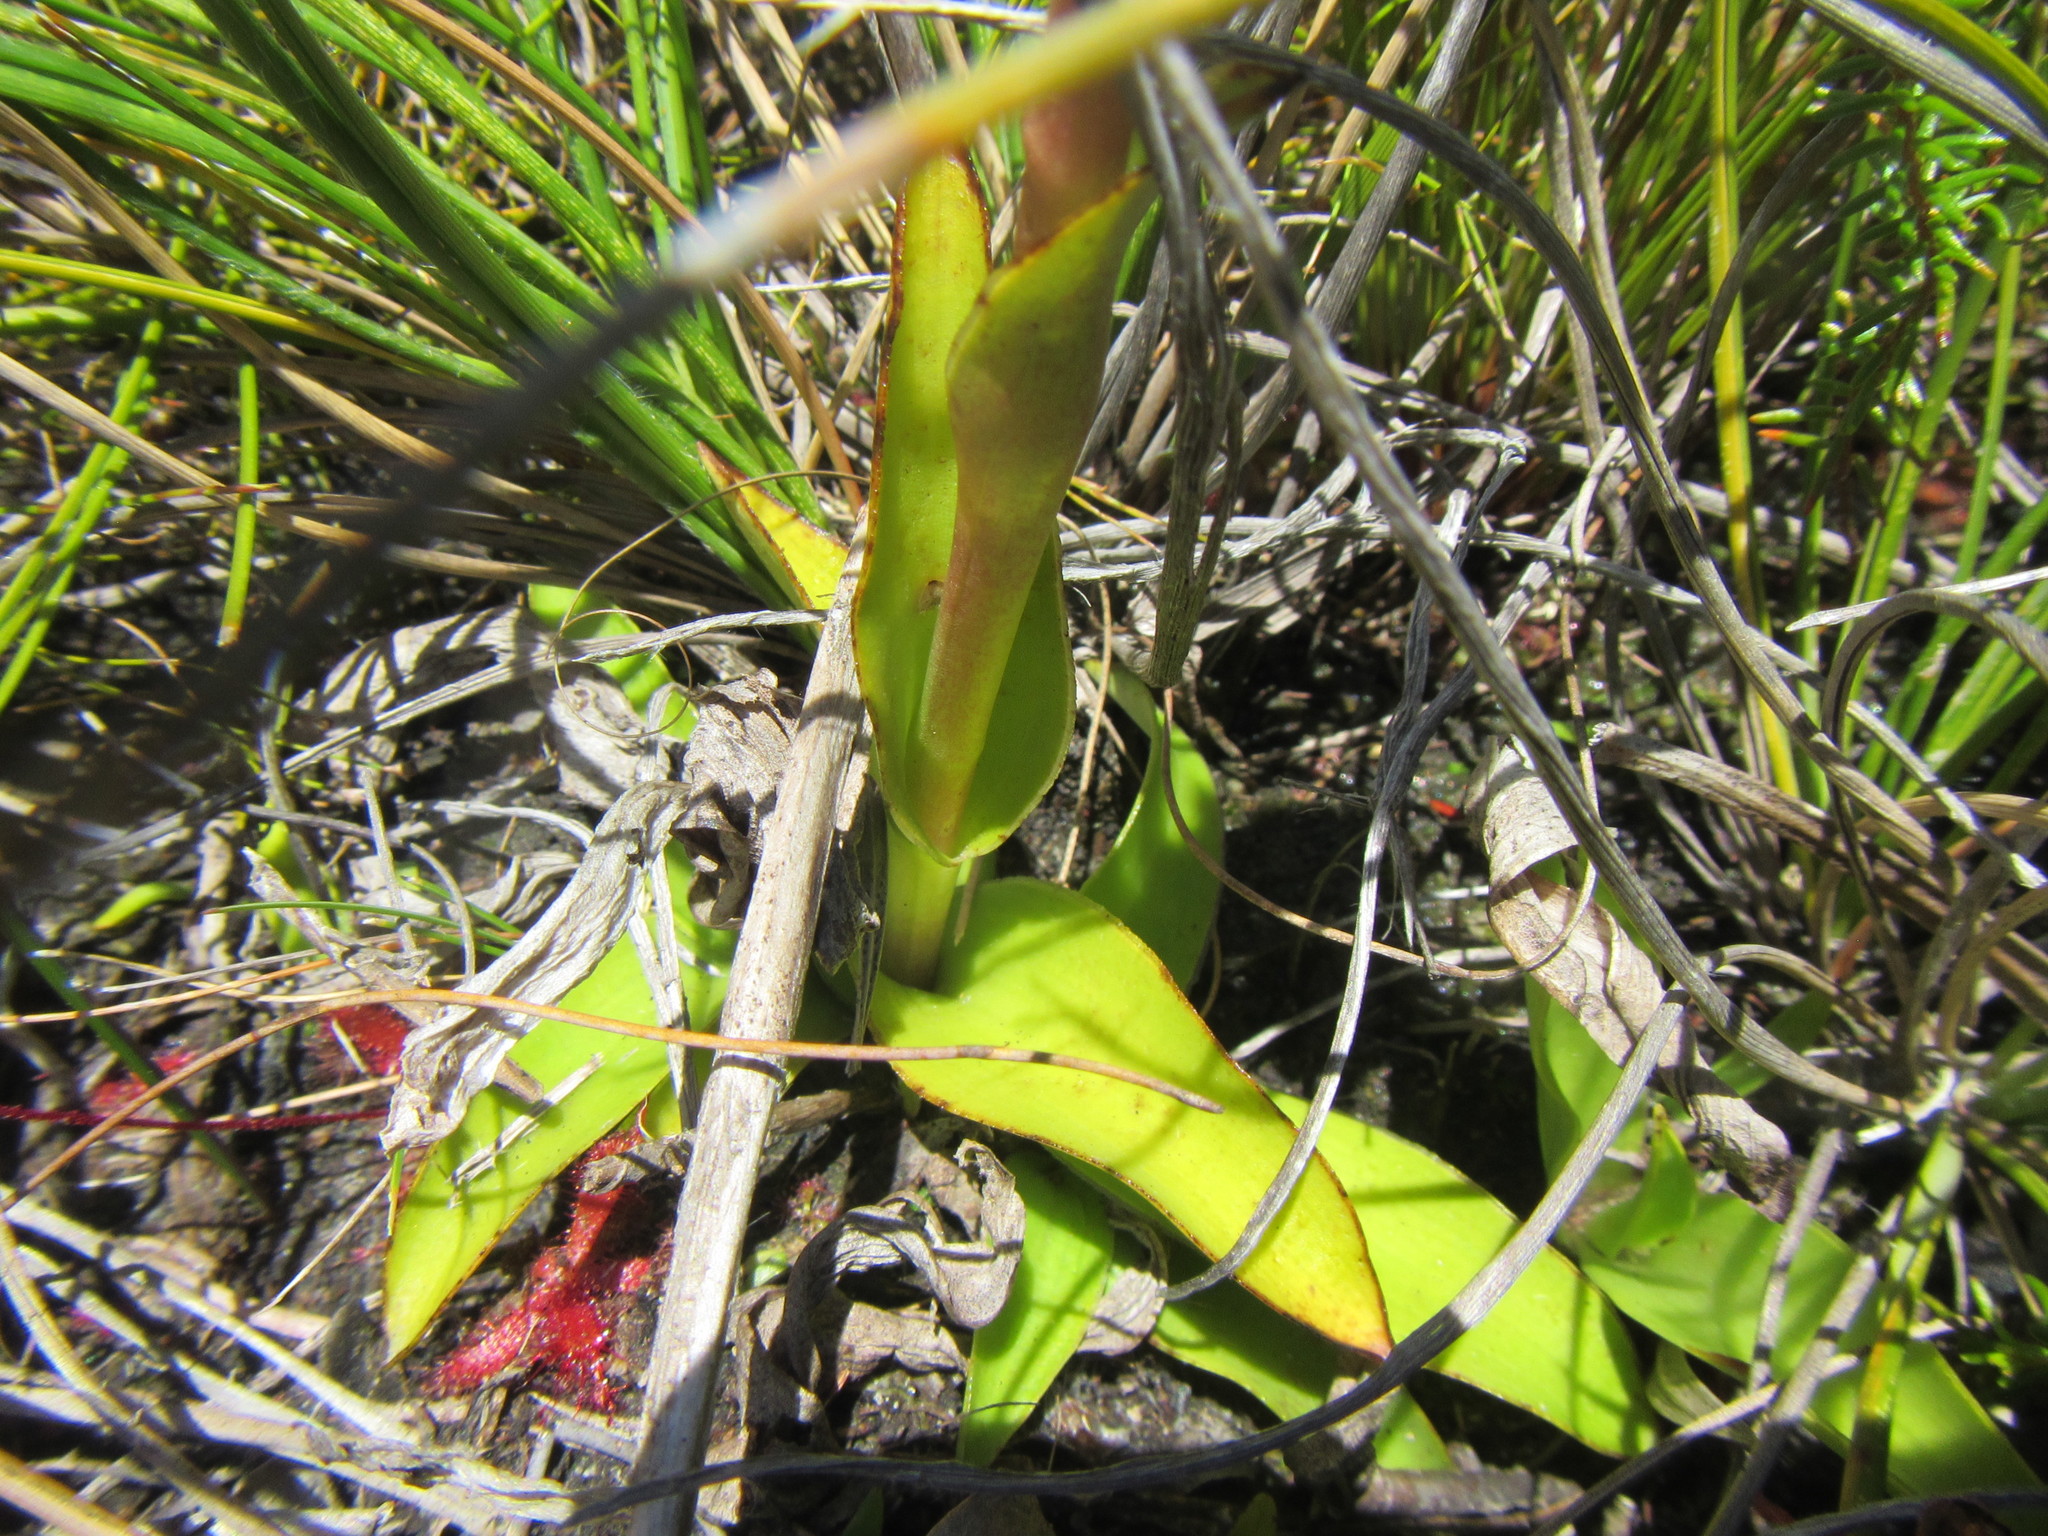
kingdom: Plantae
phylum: Tracheophyta
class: Liliopsida
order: Asparagales
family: Orchidaceae
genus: Satyrium
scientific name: Satyrium stenopetalum
